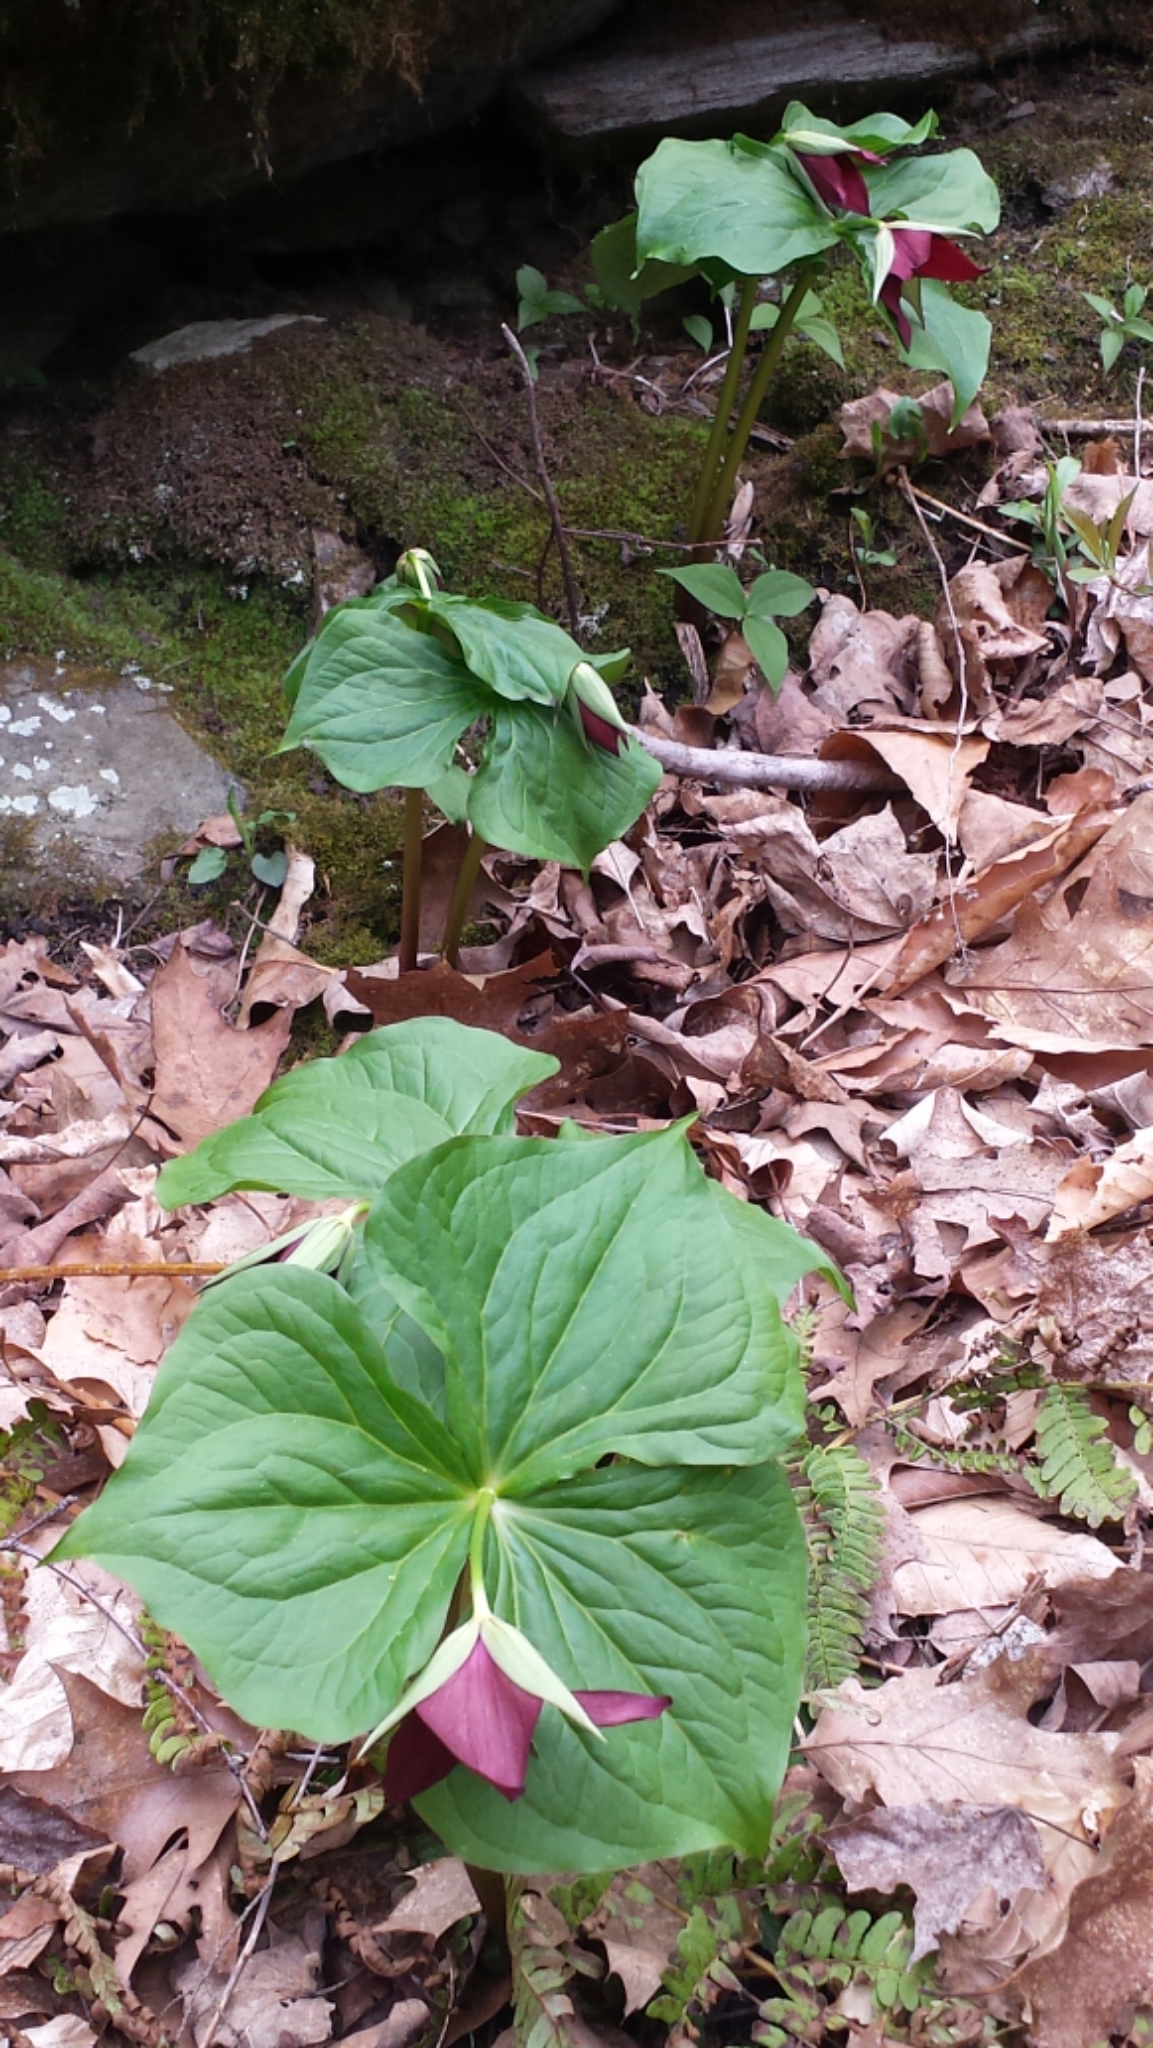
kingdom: Plantae
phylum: Tracheophyta
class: Liliopsida
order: Liliales
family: Melanthiaceae
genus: Trillium
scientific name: Trillium erectum
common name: Purple trillium
